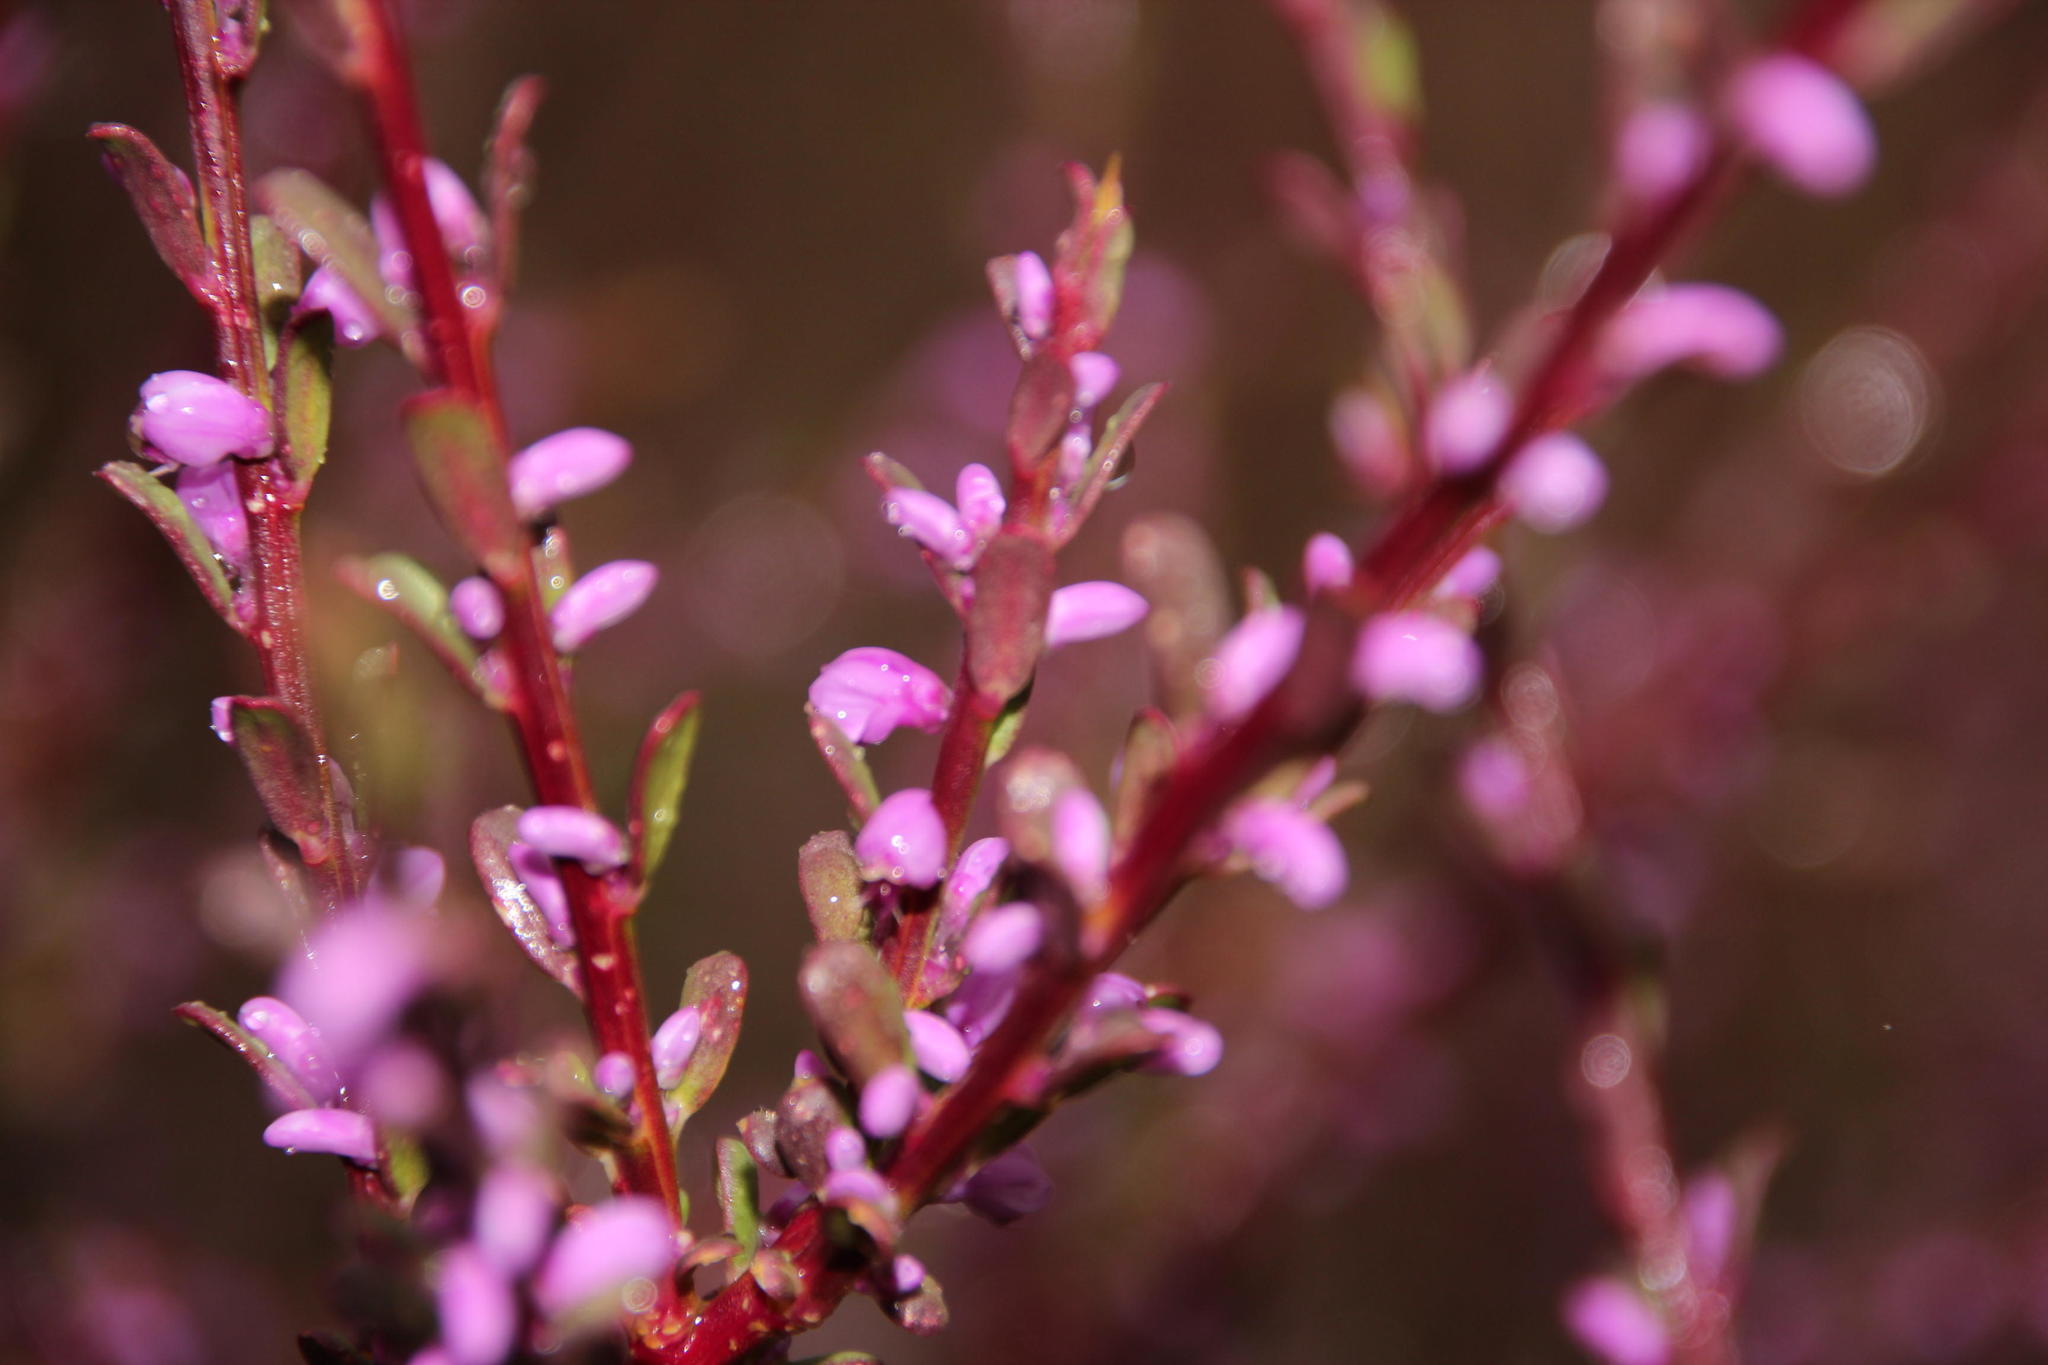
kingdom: Plantae
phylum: Tracheophyta
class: Magnoliopsida
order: Fabales
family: Polygalaceae
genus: Muraltia
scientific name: Muraltia spinosa
